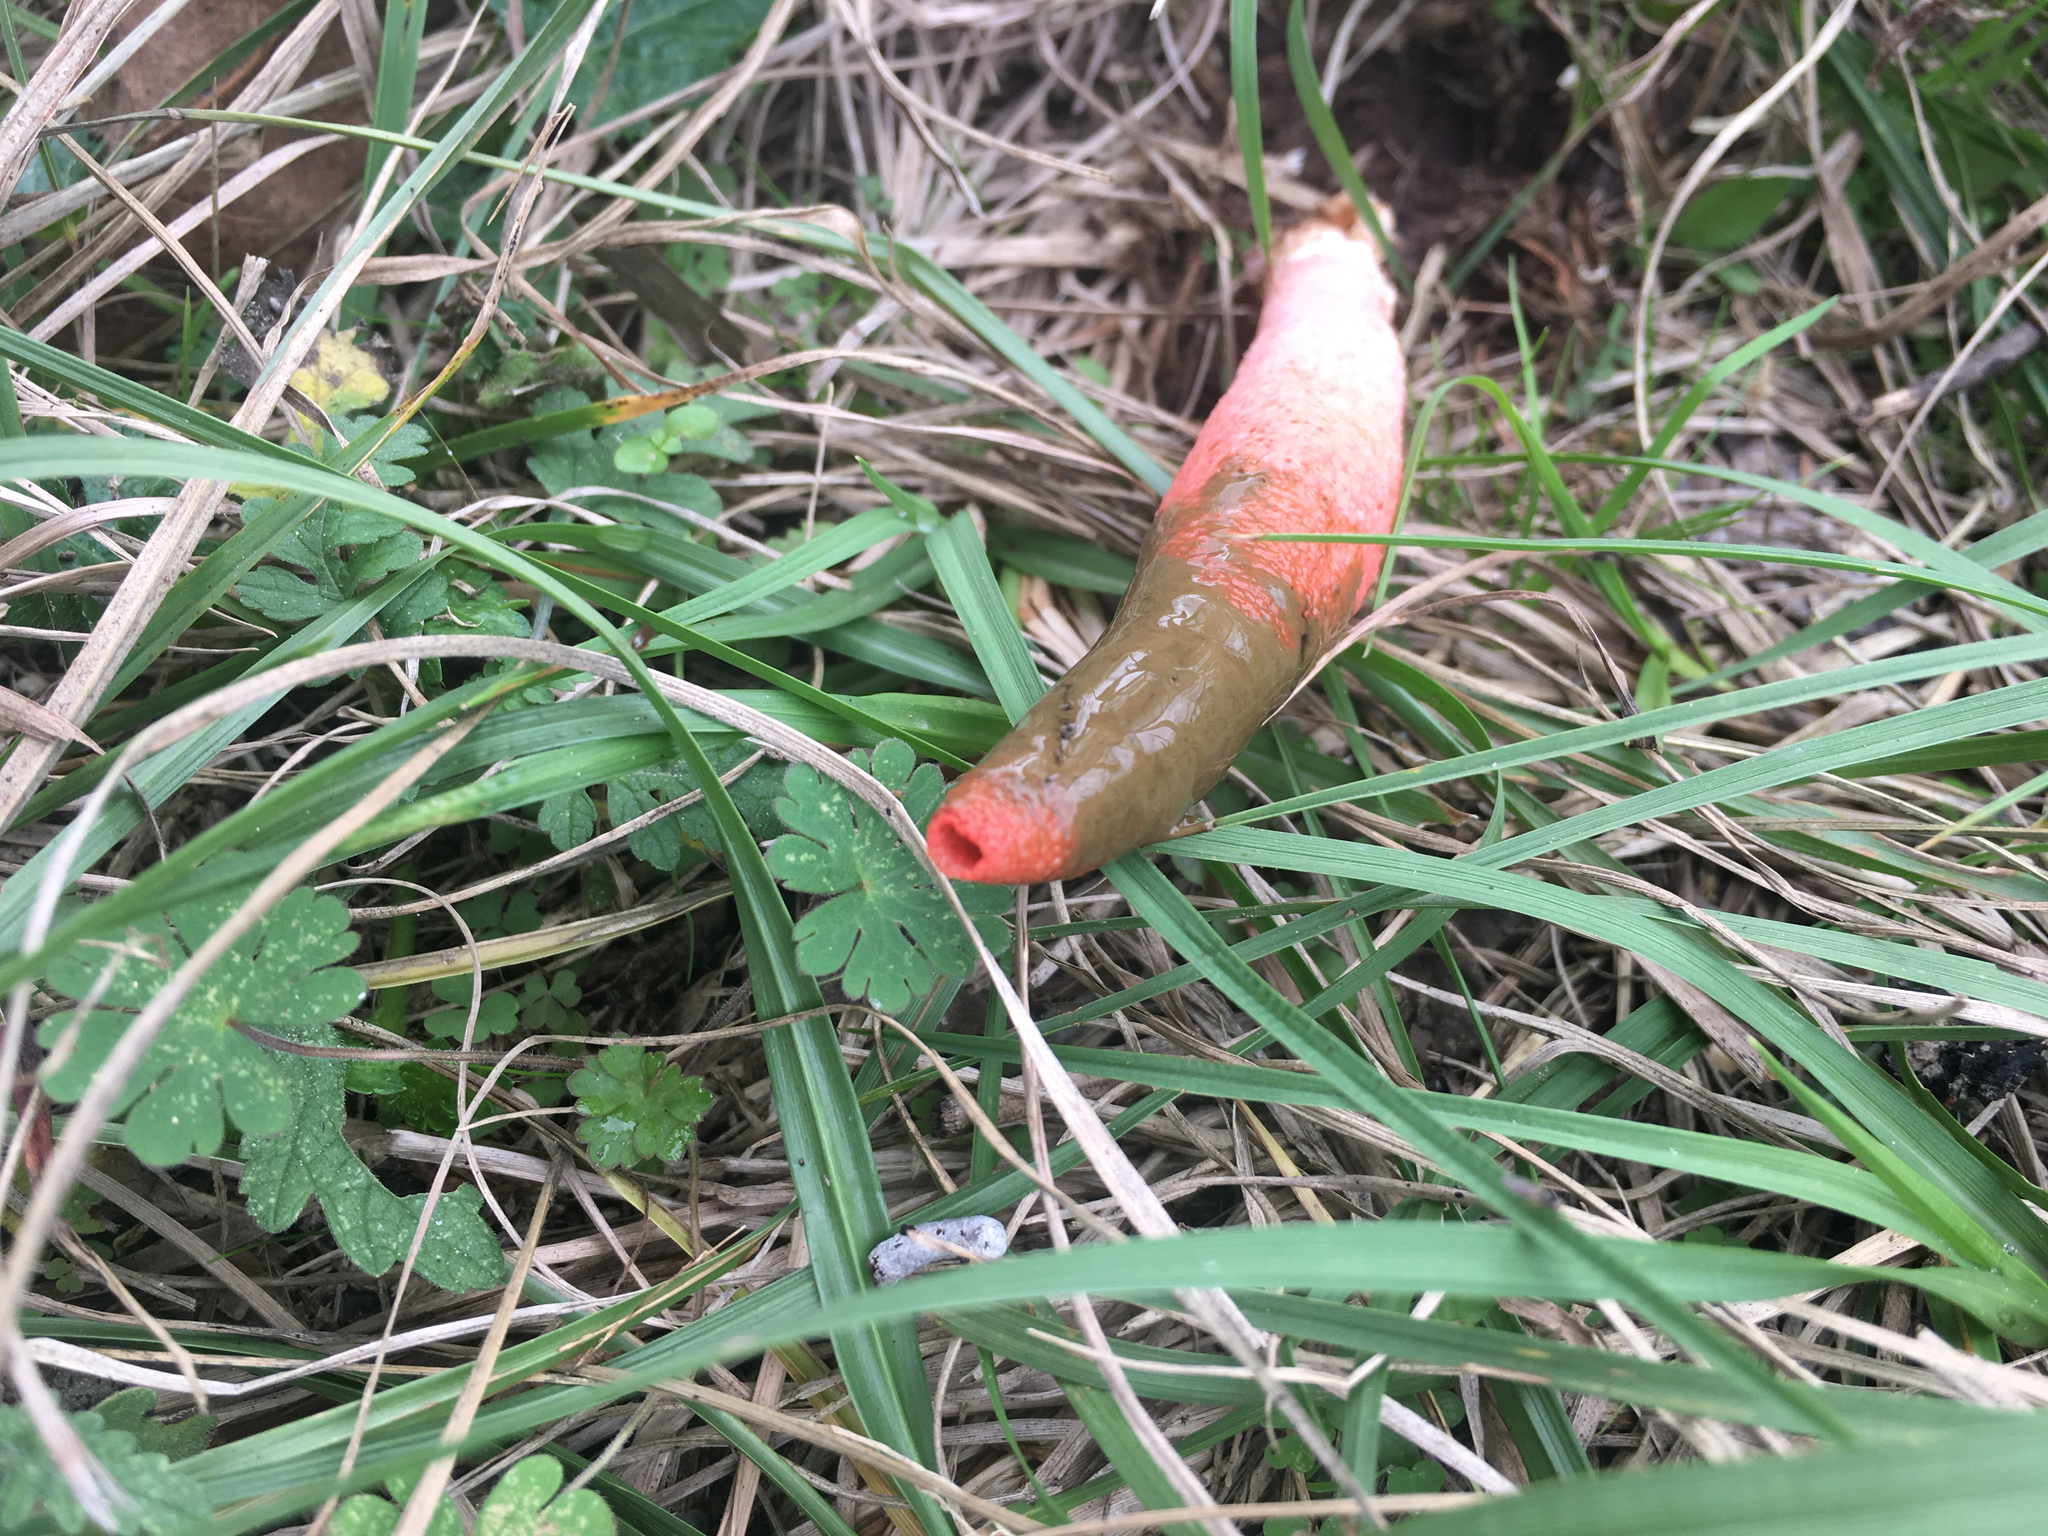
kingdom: Fungi
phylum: Basidiomycota
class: Agaricomycetes
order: Phallales
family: Phallaceae
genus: Mutinus
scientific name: Mutinus elegans
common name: Devil's dipstick
